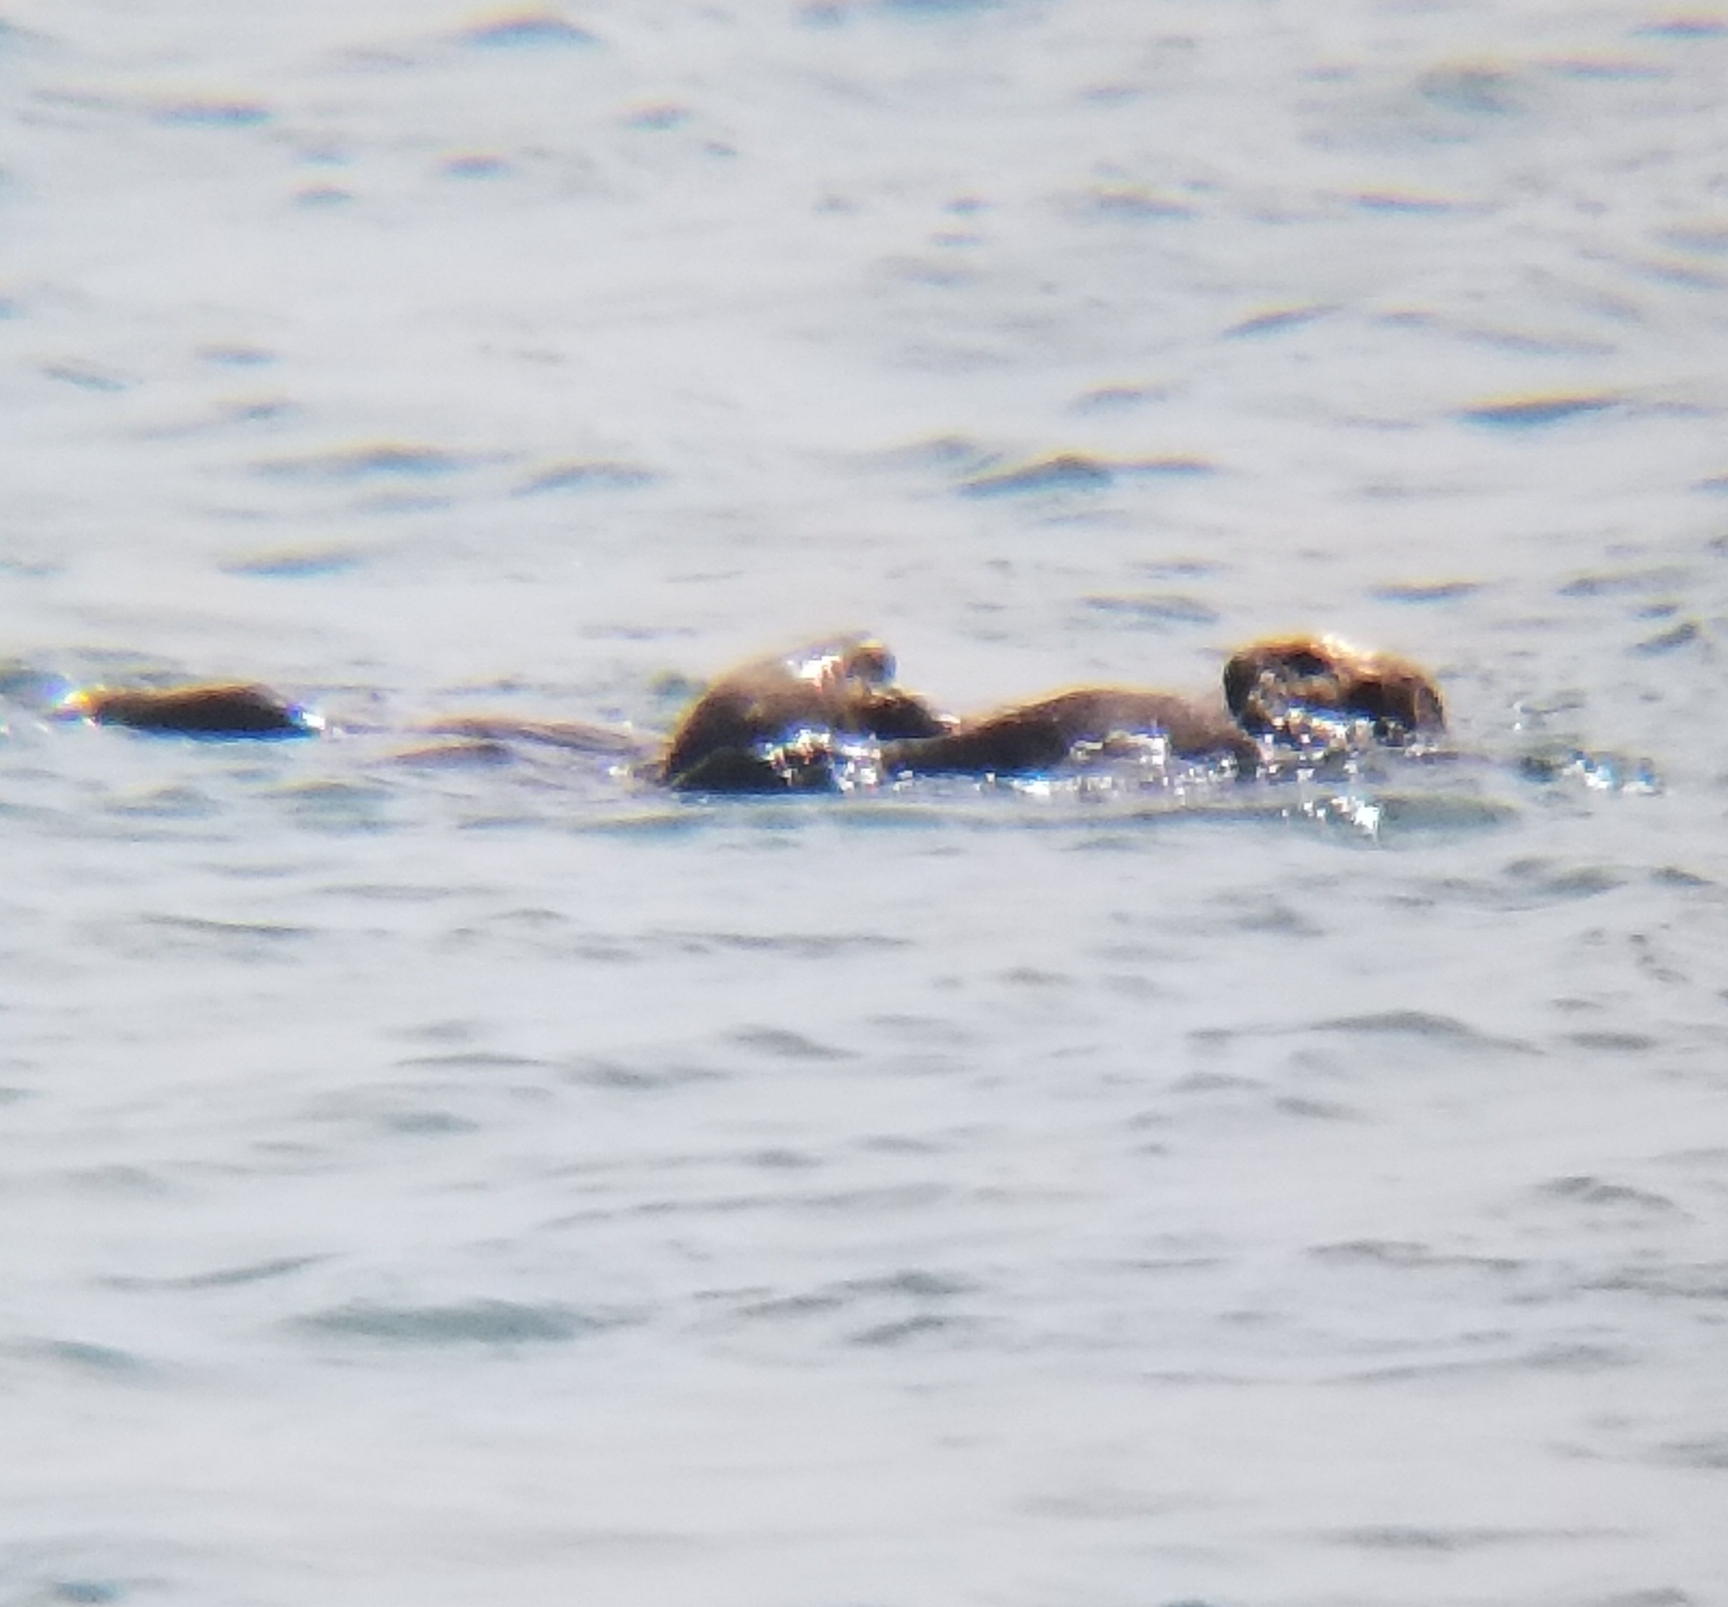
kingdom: Animalia
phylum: Chordata
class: Mammalia
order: Carnivora
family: Mustelidae
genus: Enhydra
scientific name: Enhydra lutris
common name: Sea otter
